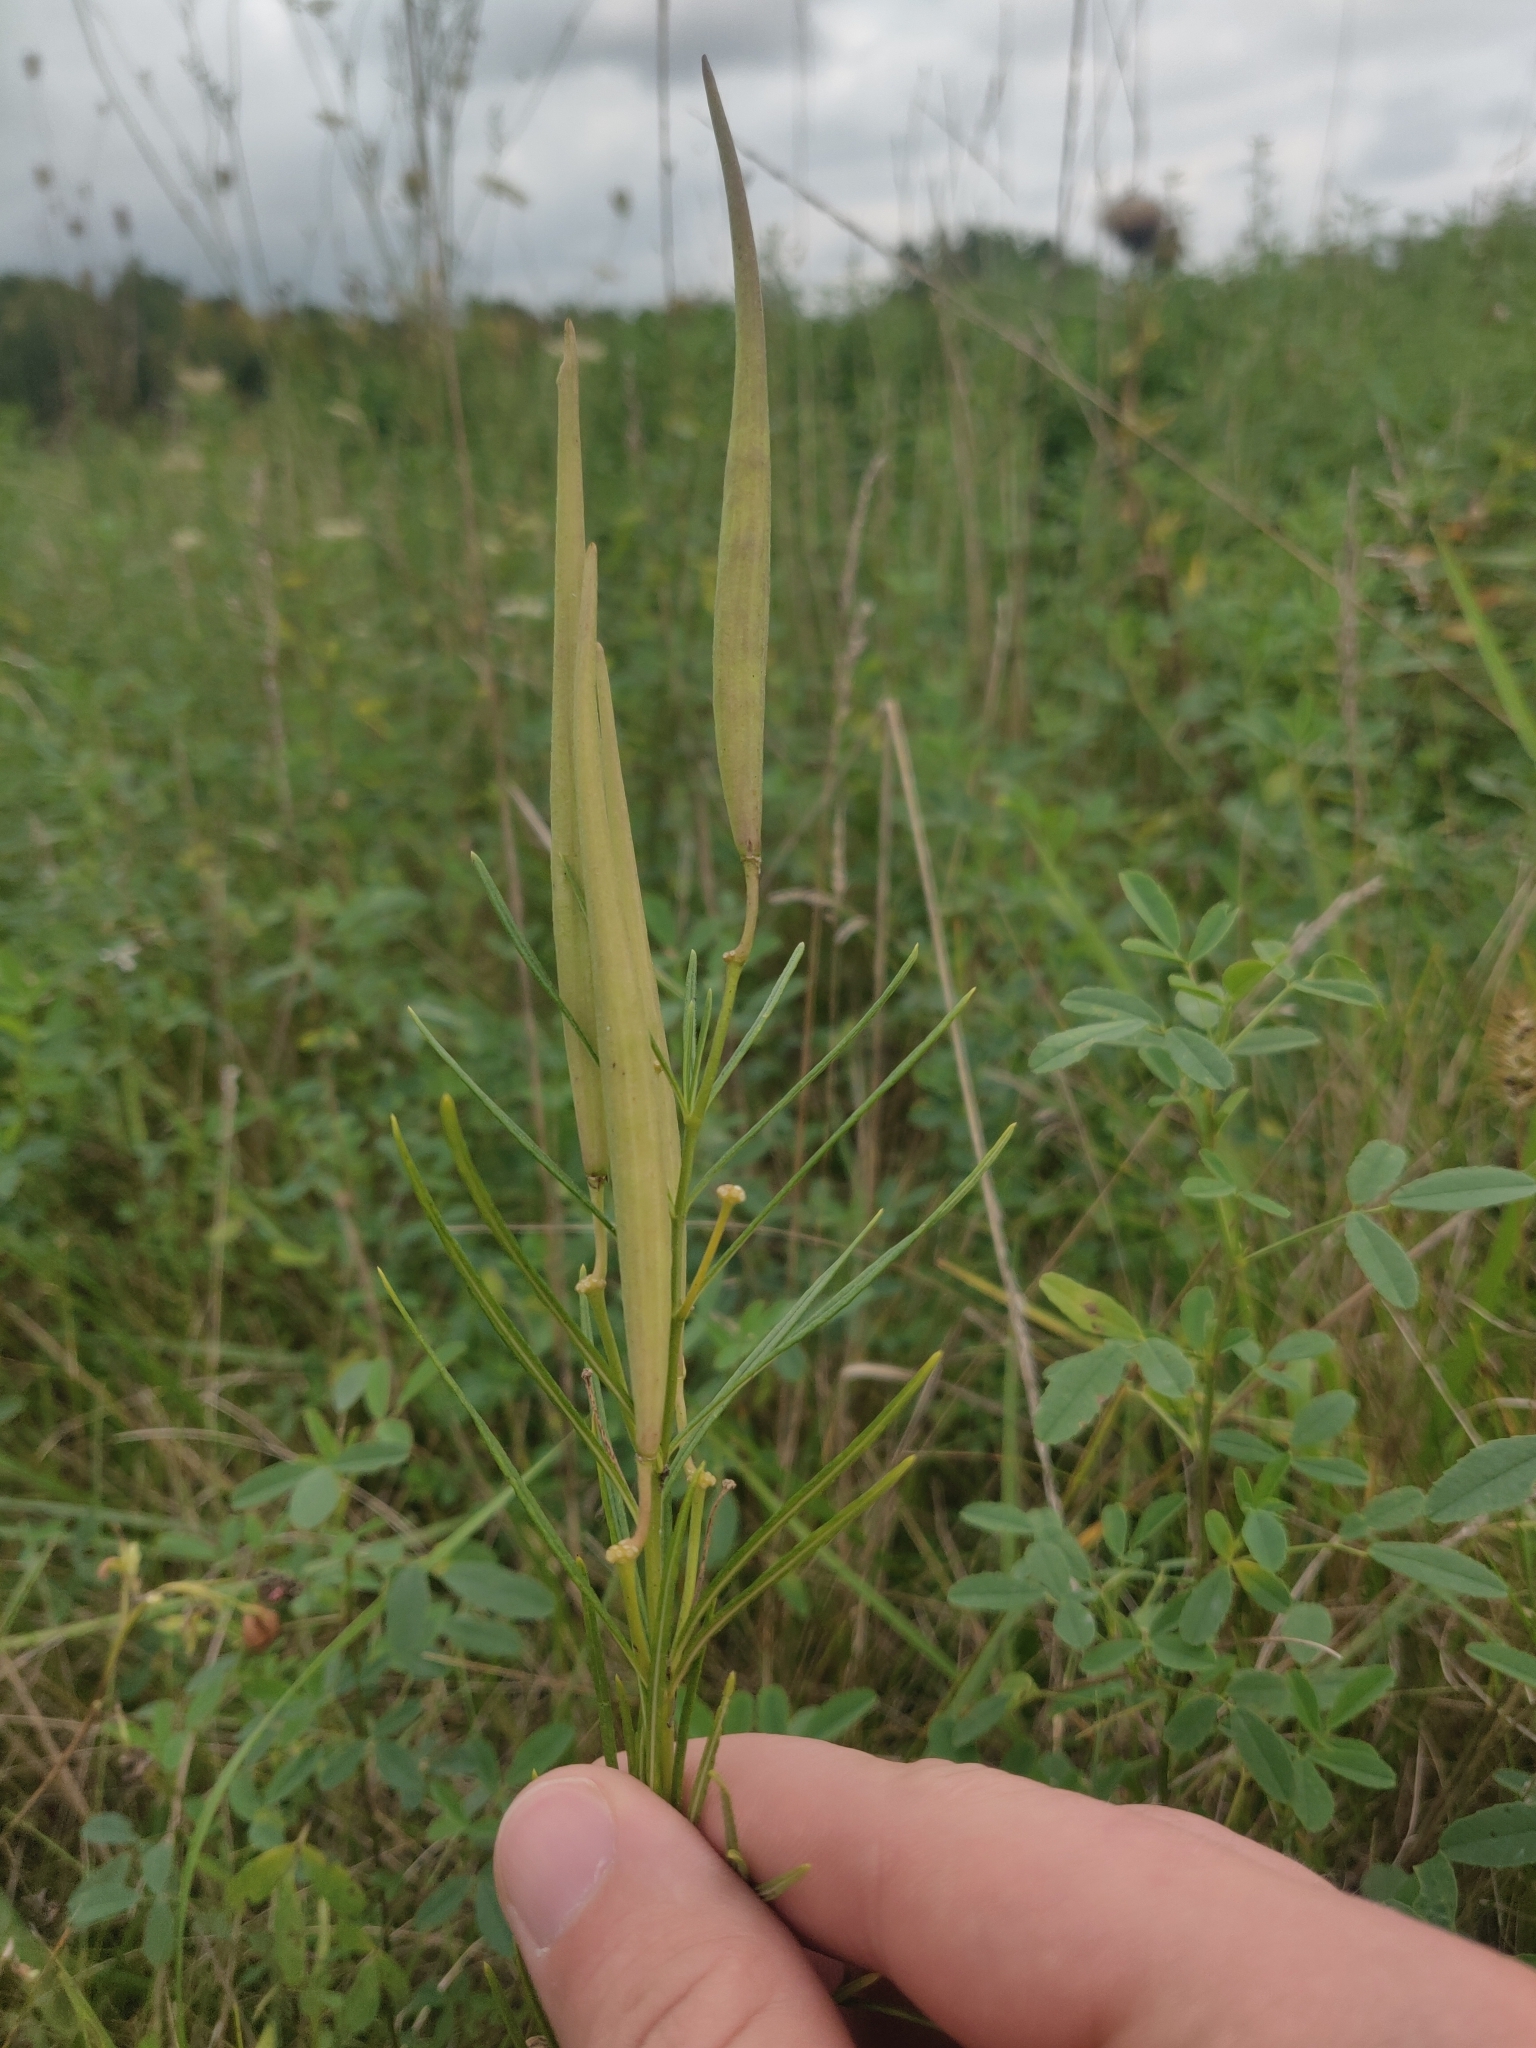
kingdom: Plantae
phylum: Tracheophyta
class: Magnoliopsida
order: Gentianales
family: Apocynaceae
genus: Asclepias
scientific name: Asclepias verticillata
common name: Eastern whorled milkweed
